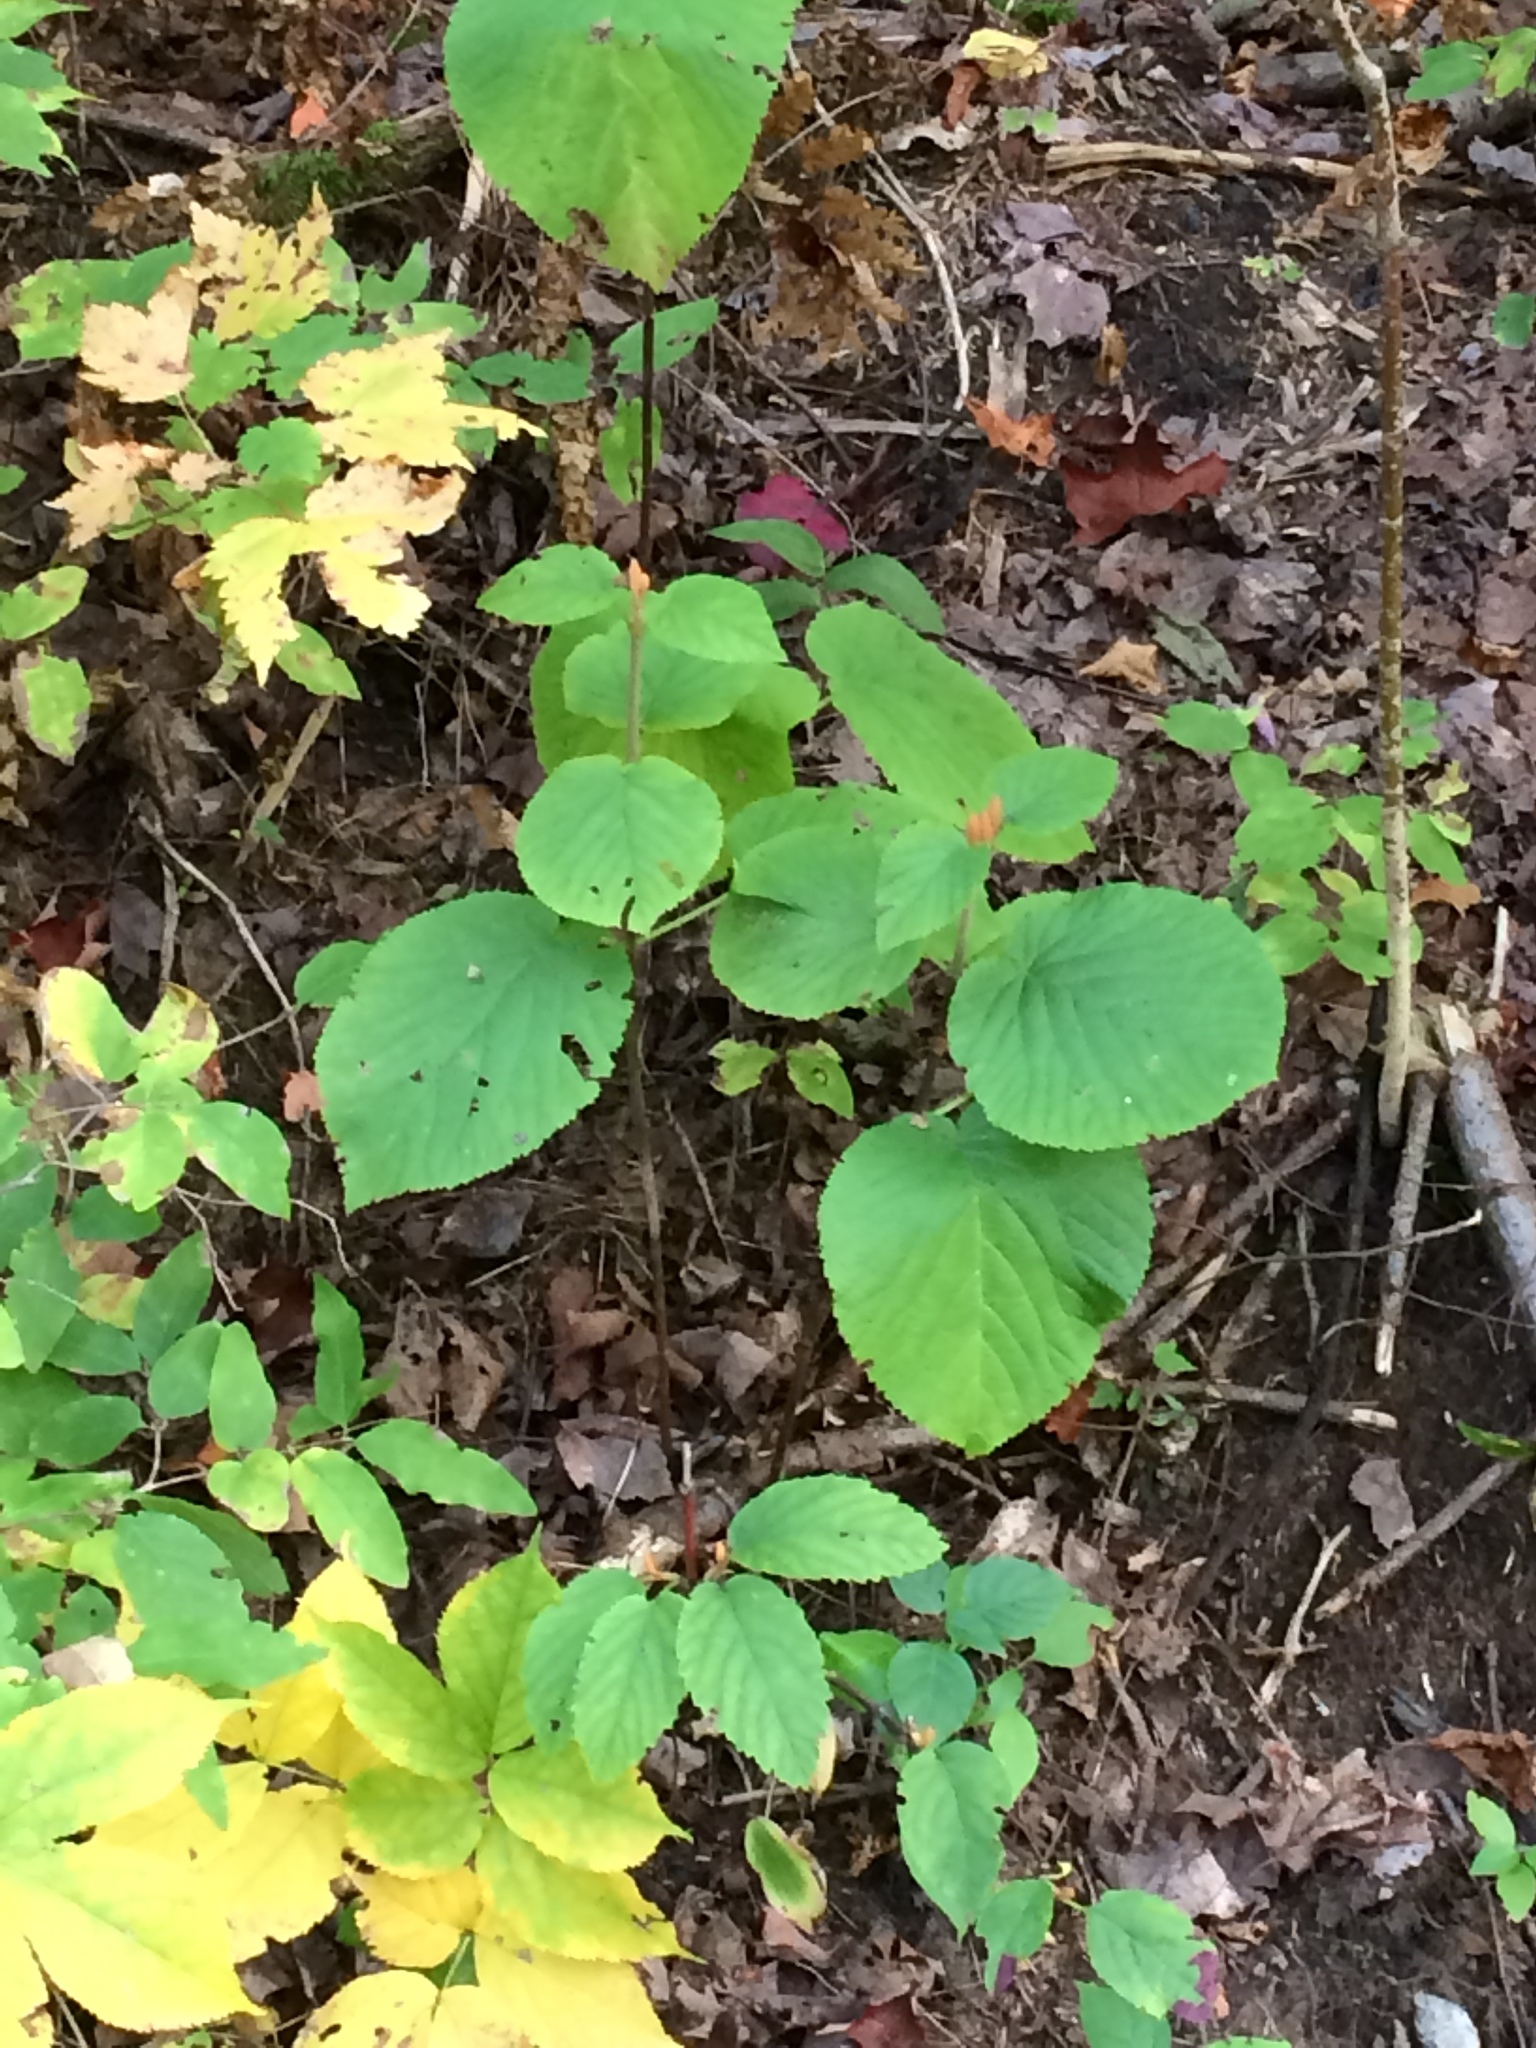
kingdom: Plantae
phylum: Tracheophyta
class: Magnoliopsida
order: Dipsacales
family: Viburnaceae
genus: Viburnum
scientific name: Viburnum lantanoides
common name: Hobblebush
